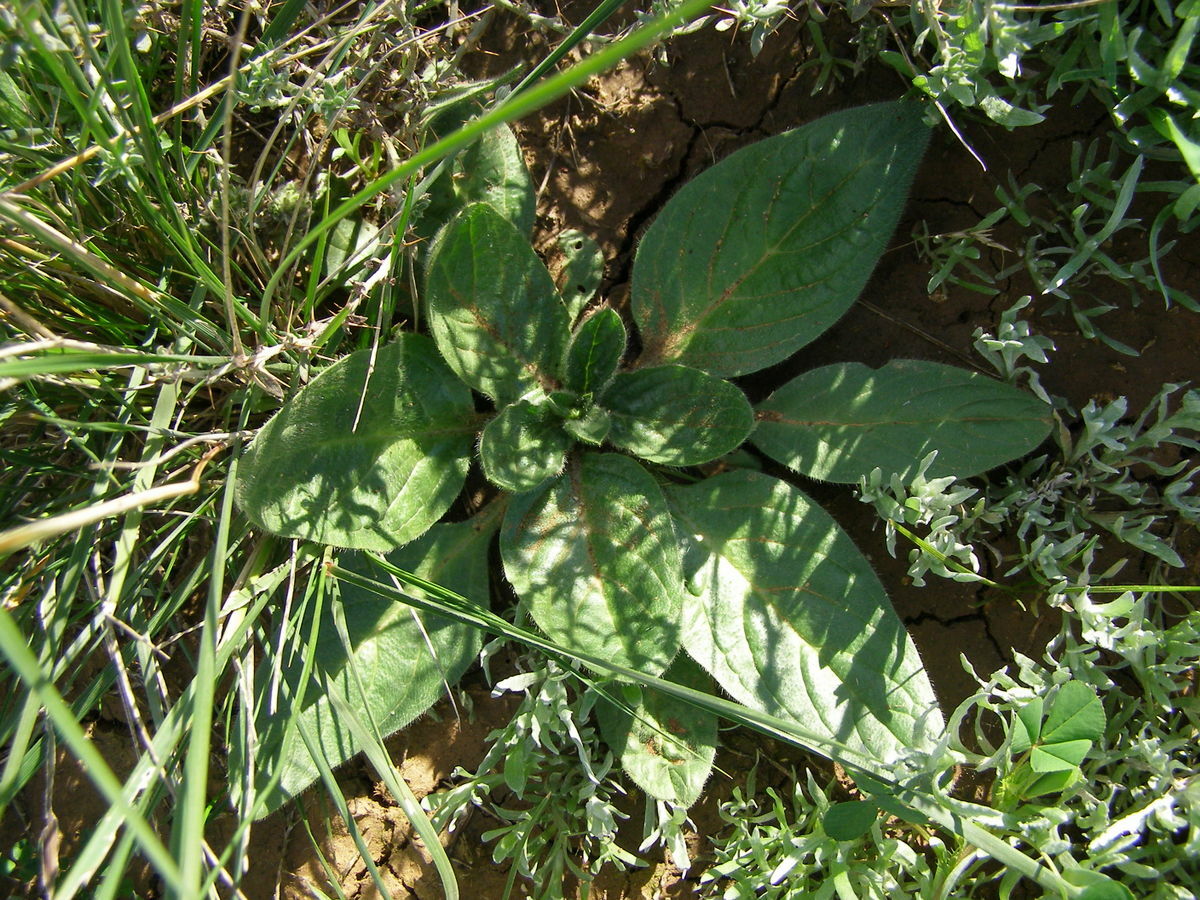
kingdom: Plantae
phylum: Tracheophyta
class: Magnoliopsida
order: Boraginales
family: Boraginaceae
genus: Echium
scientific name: Echium plantagineum
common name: Purple viper's-bugloss
